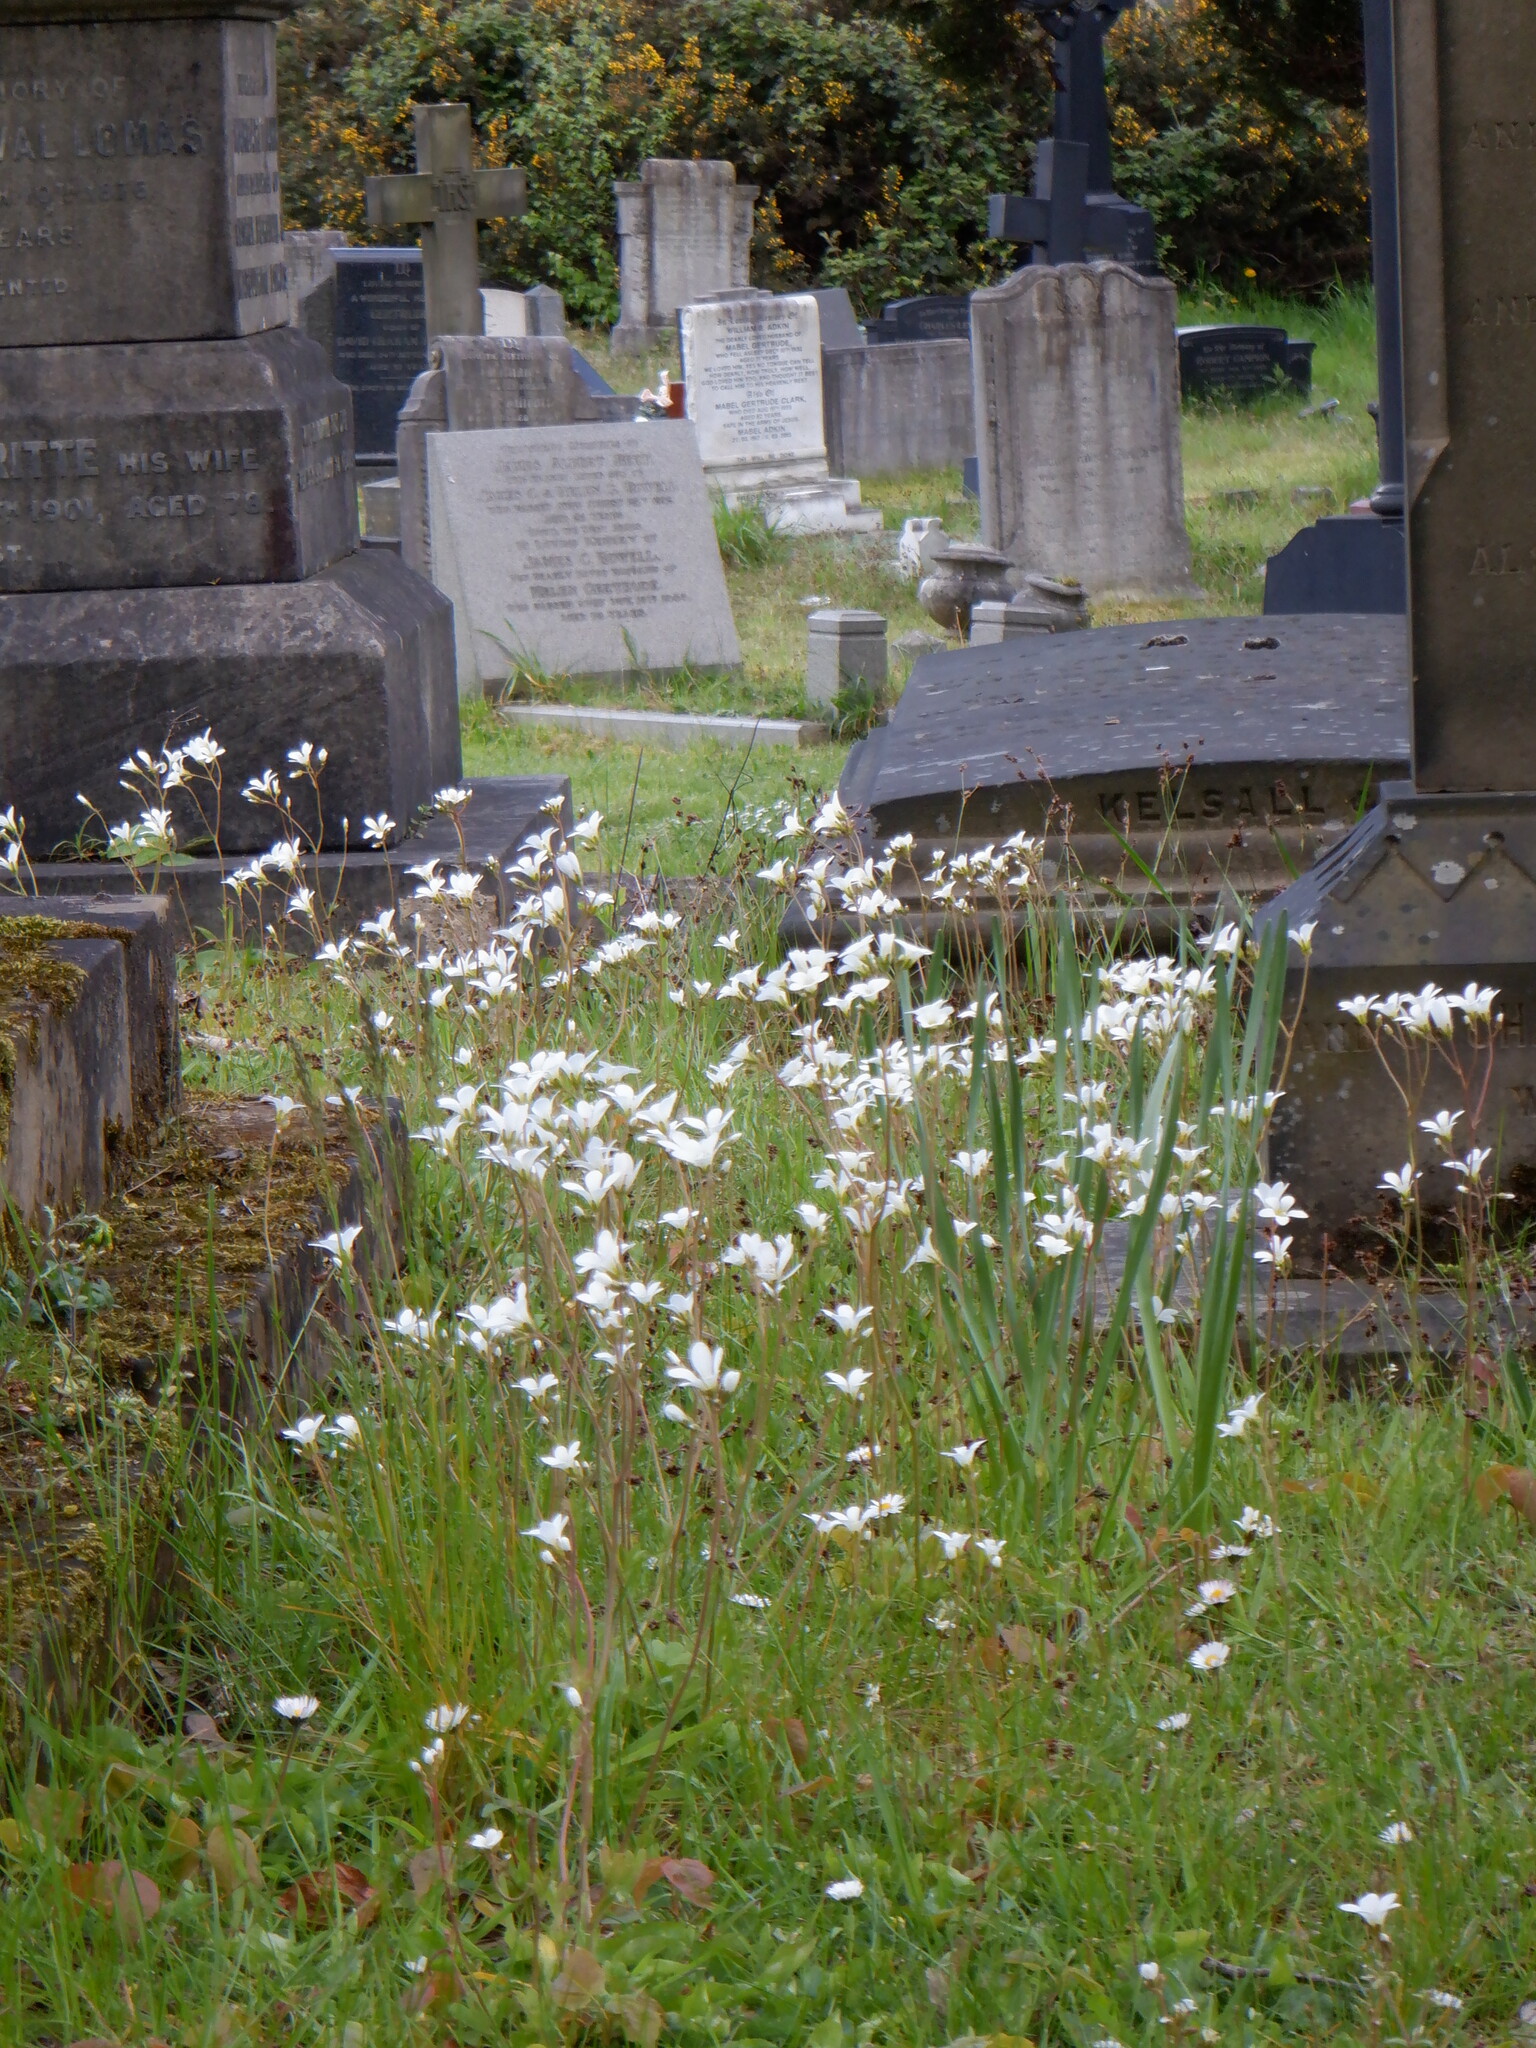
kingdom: Plantae
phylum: Tracheophyta
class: Magnoliopsida
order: Saxifragales
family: Saxifragaceae
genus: Saxifraga
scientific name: Saxifraga granulata
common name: Meadow saxifrage
